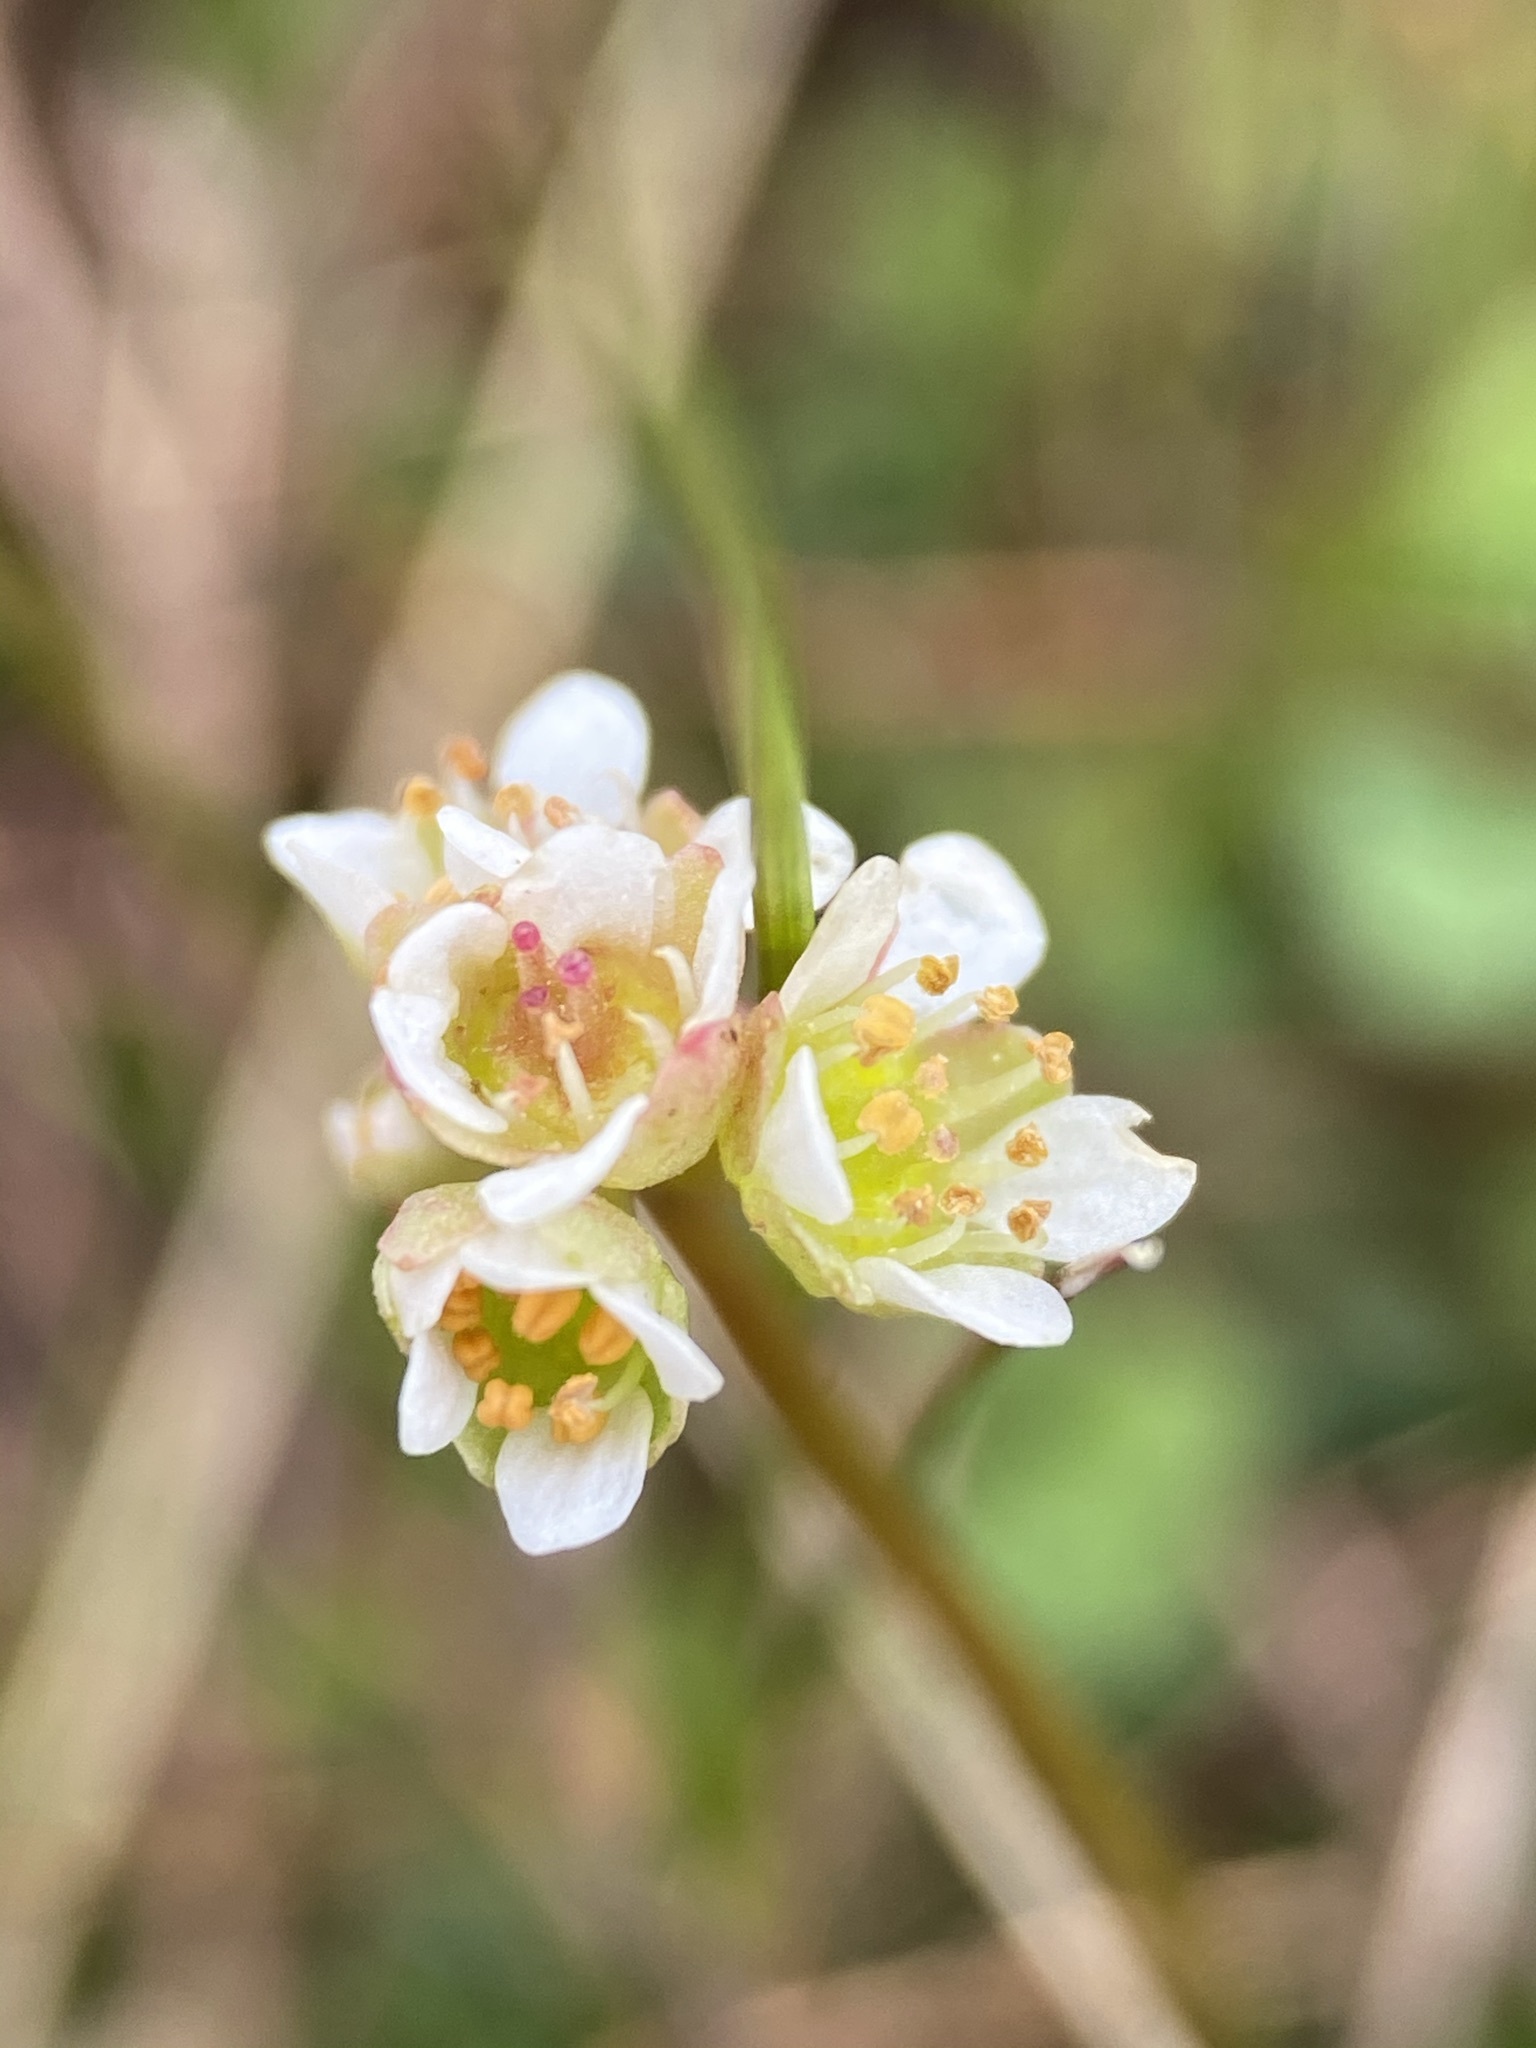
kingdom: Plantae
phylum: Tracheophyta
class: Magnoliopsida
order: Saxifragales
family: Saxifragaceae
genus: Micranthes
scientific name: Micranthes texana
